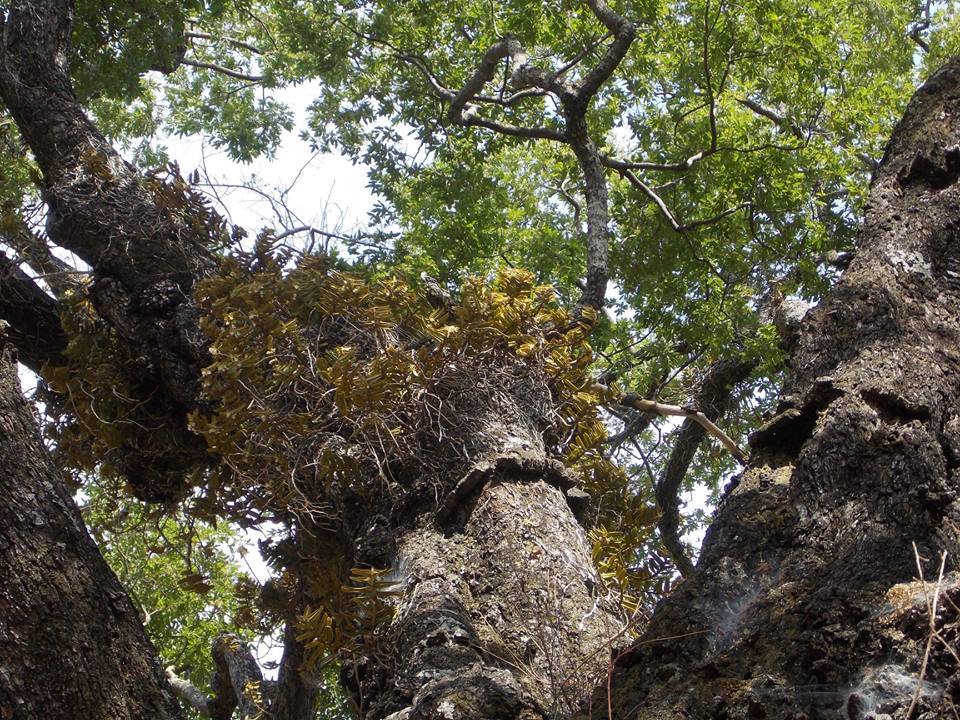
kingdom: Plantae
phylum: Tracheophyta
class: Liliopsida
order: Asparagales
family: Orchidaceae
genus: Calyptrochilum
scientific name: Calyptrochilum christyanum
